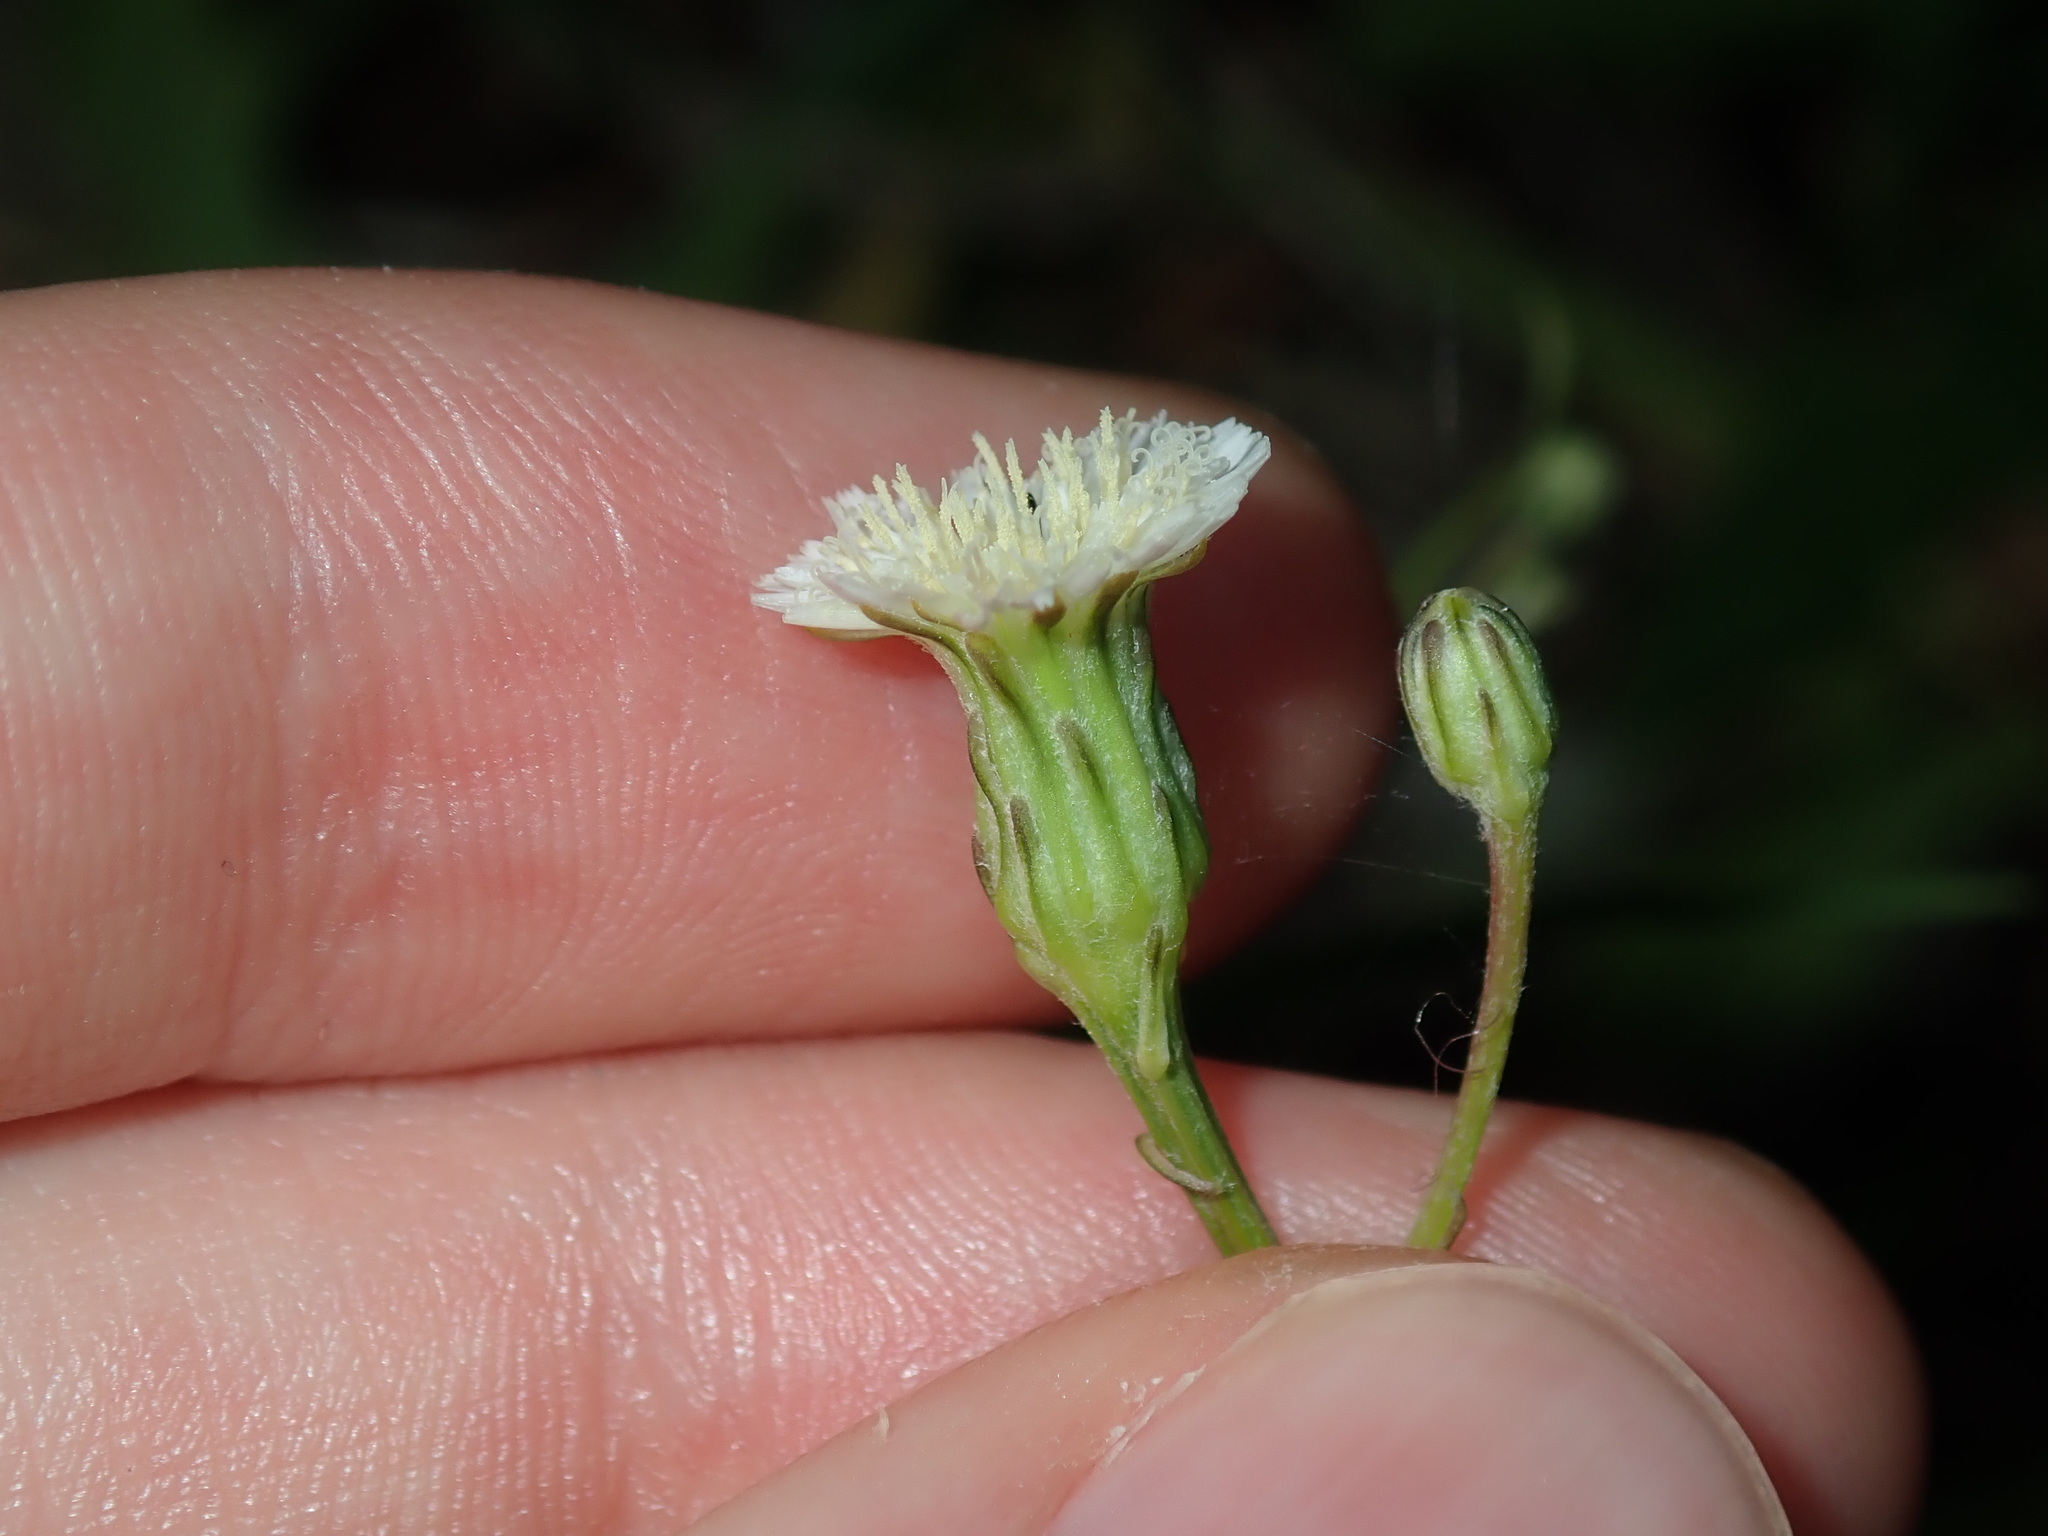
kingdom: Plantae
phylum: Tracheophyta
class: Magnoliopsida
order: Asterales
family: Asteraceae
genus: Hypochaeris
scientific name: Hypochaeris albiflora
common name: White flatweed
